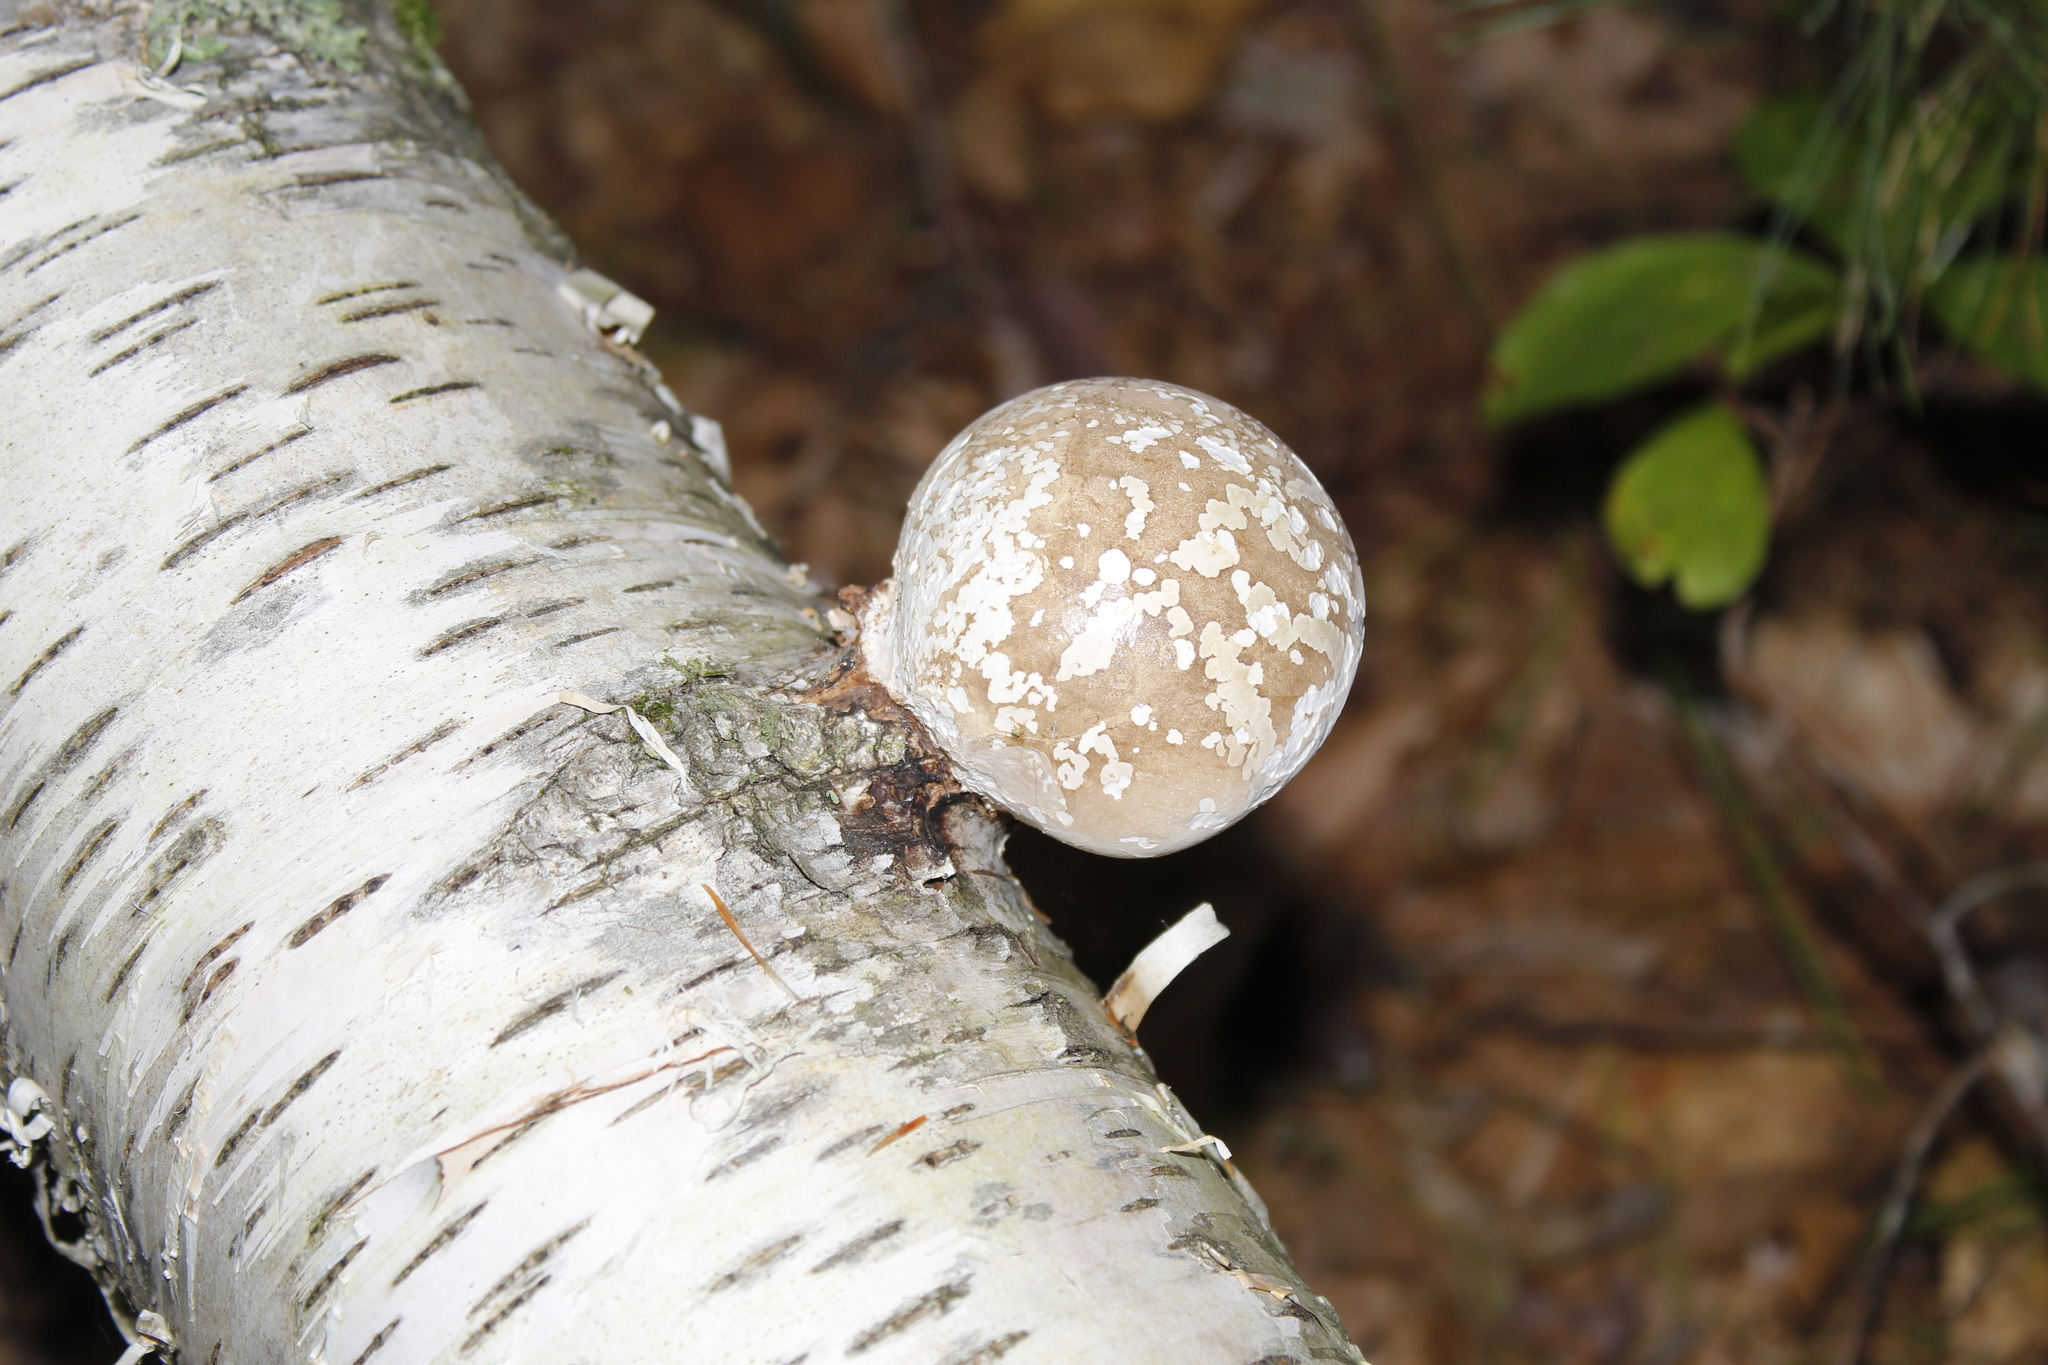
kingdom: Fungi
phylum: Basidiomycota
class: Agaricomycetes
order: Polyporales
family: Fomitopsidaceae
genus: Fomitopsis
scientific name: Fomitopsis betulina
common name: Birch polypore
